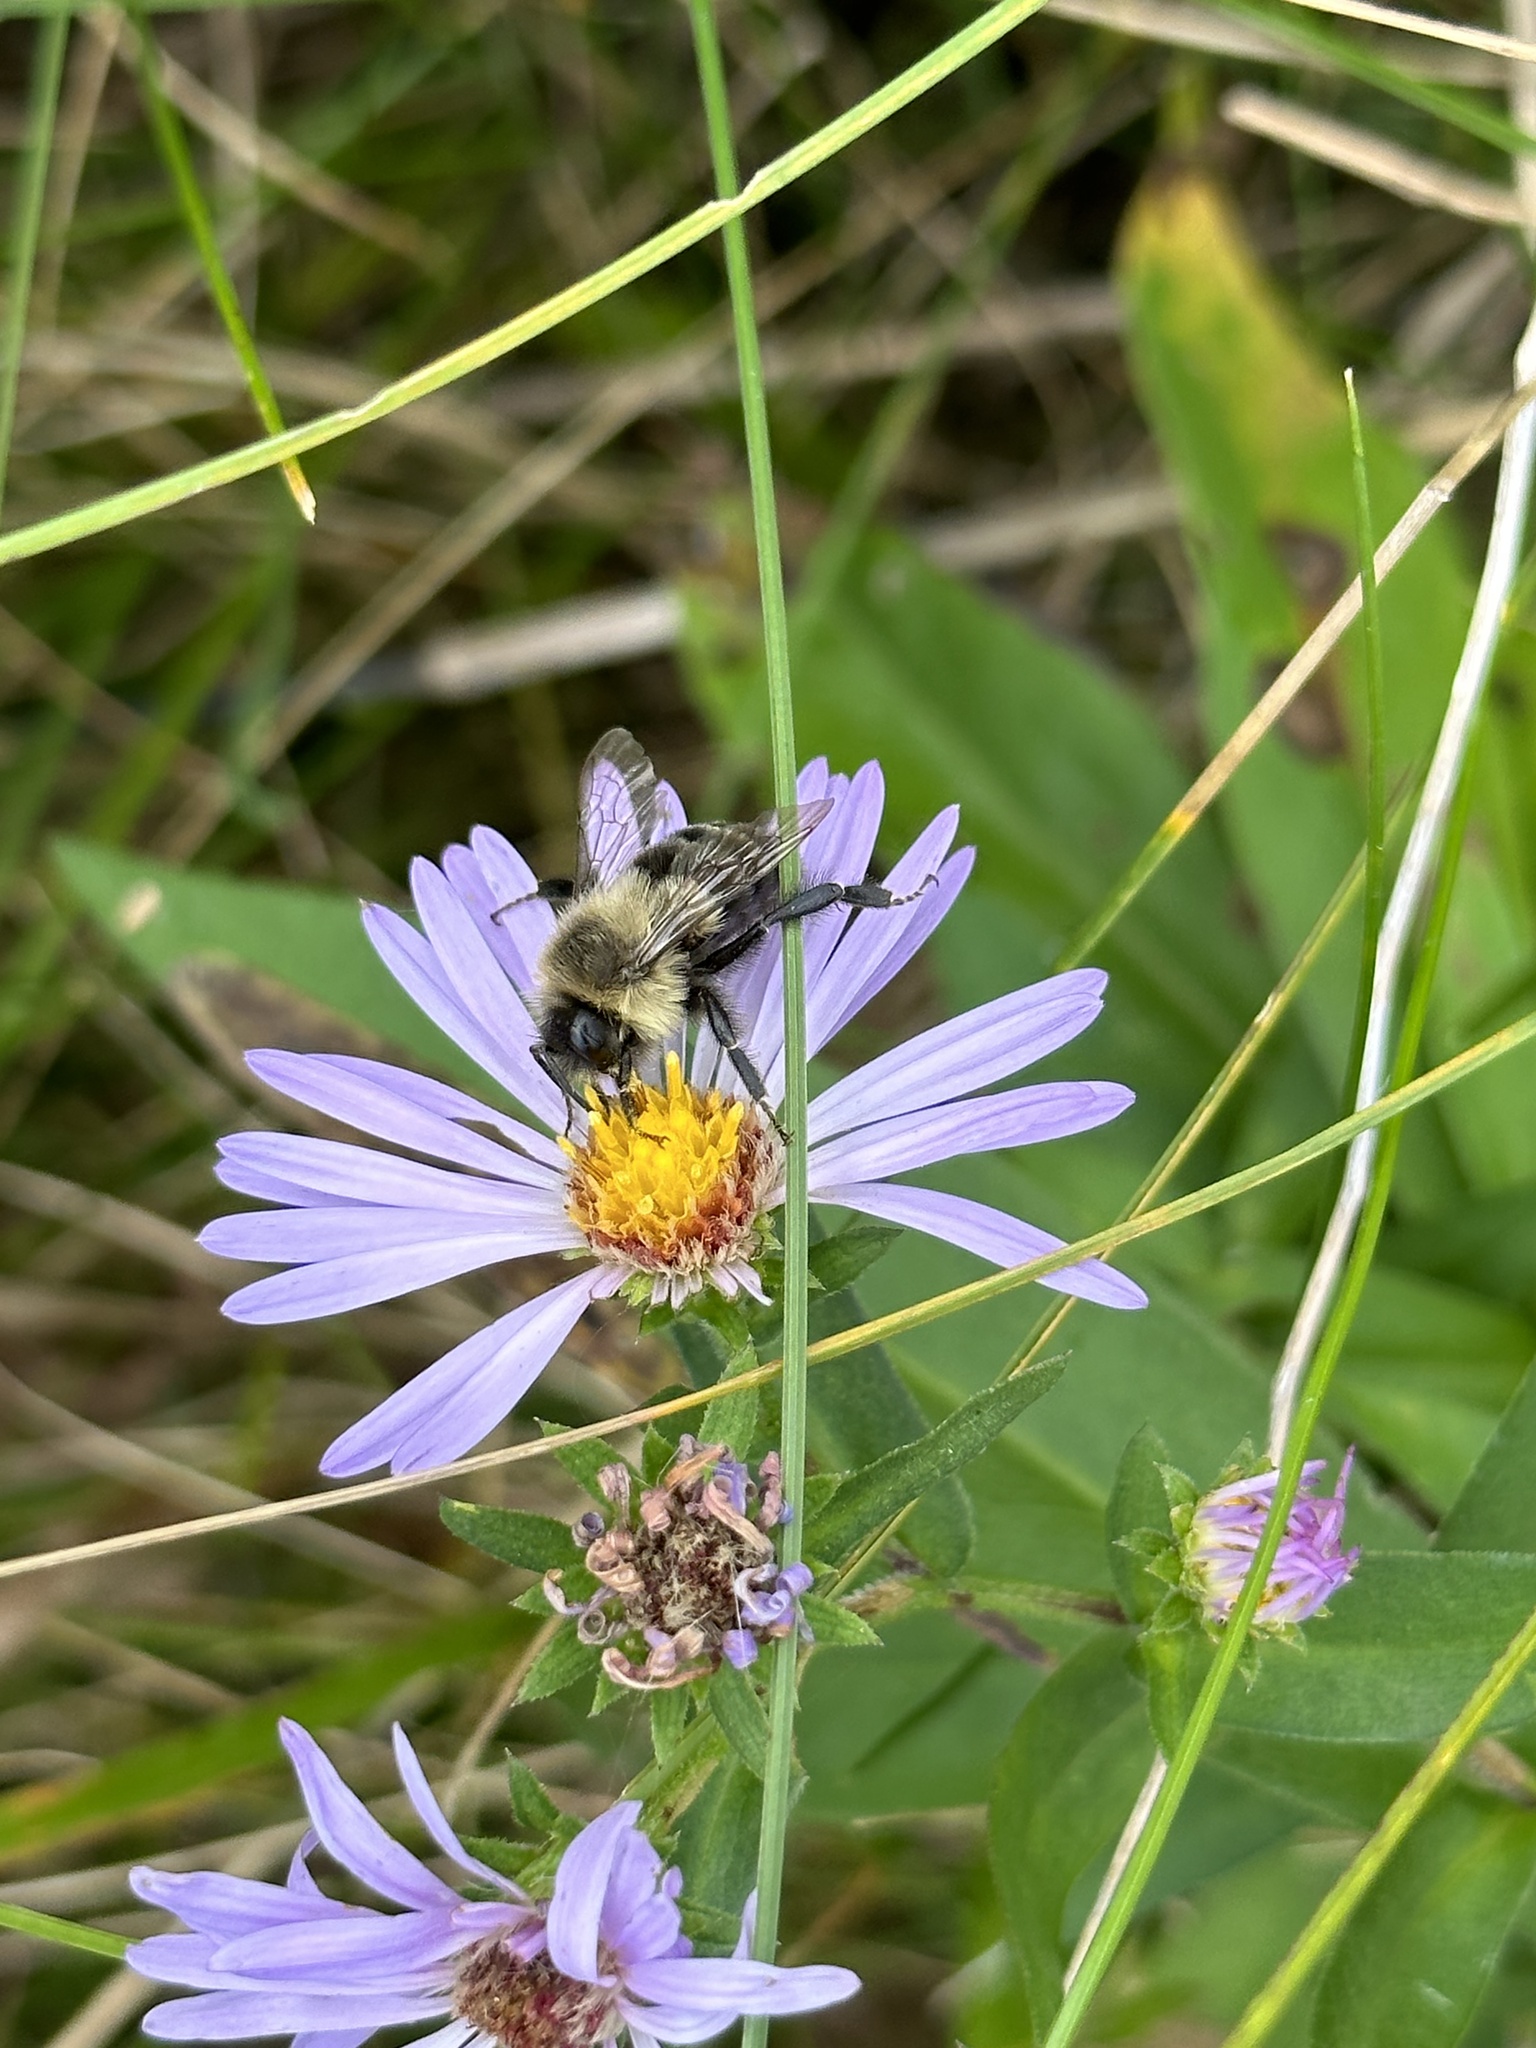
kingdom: Animalia
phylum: Arthropoda
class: Insecta
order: Hymenoptera
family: Apidae
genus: Bombus
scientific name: Bombus impatiens
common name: Common eastern bumble bee
